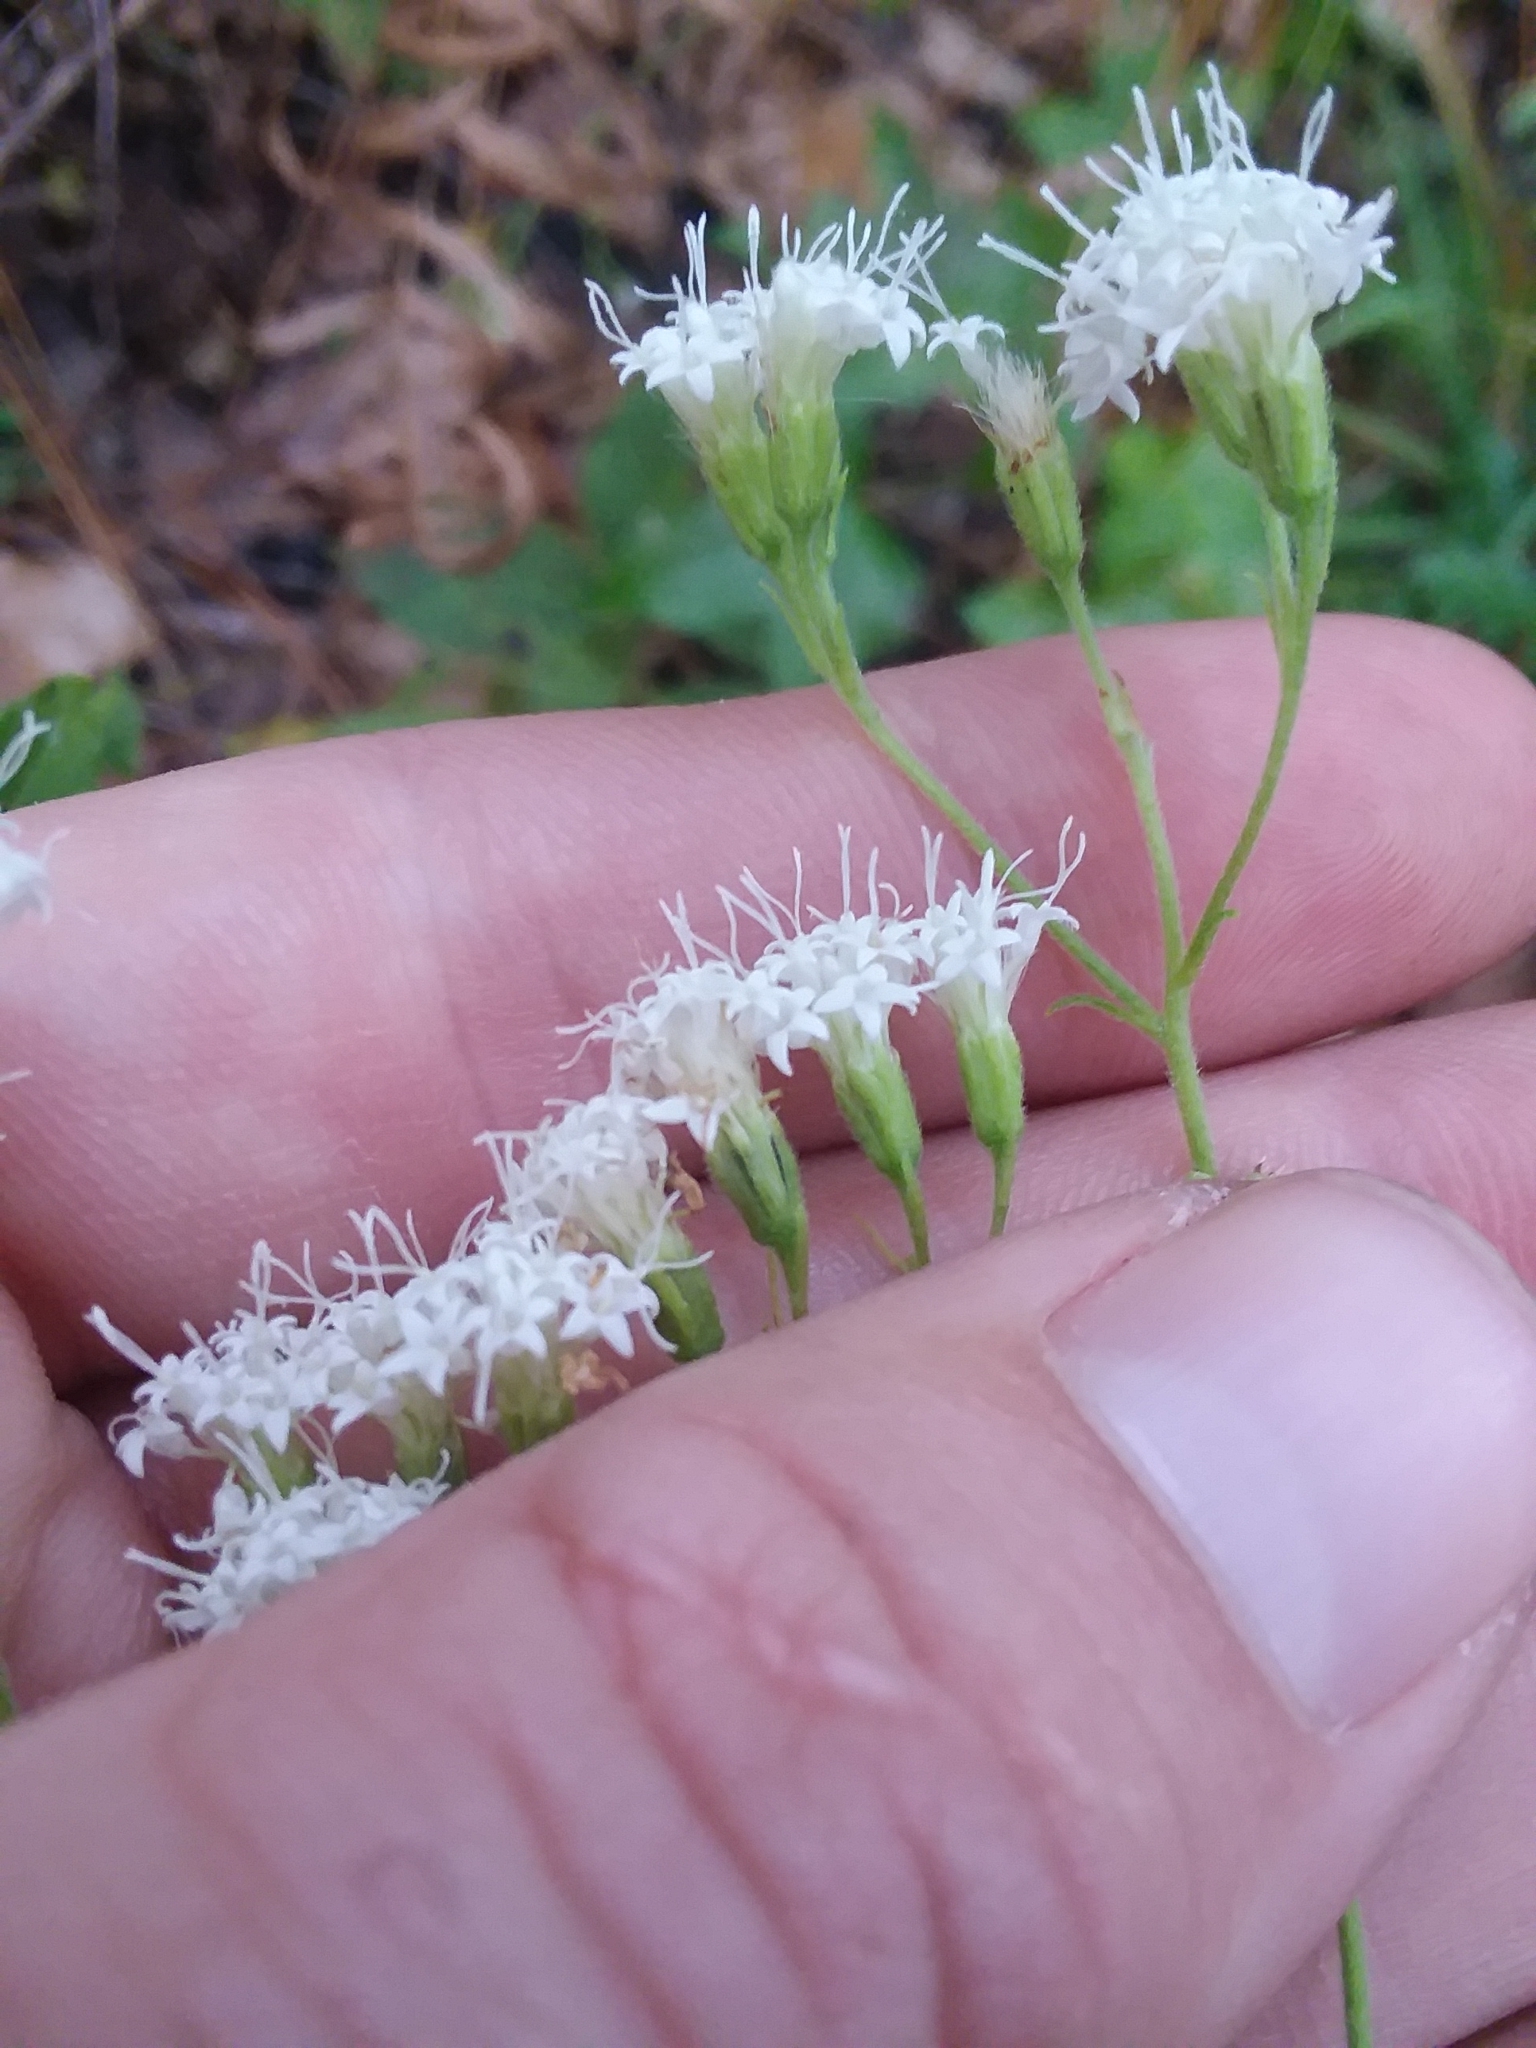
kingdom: Plantae
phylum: Tracheophyta
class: Magnoliopsida
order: Asterales
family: Asteraceae
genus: Ageratina
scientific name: Ageratina aromatica
